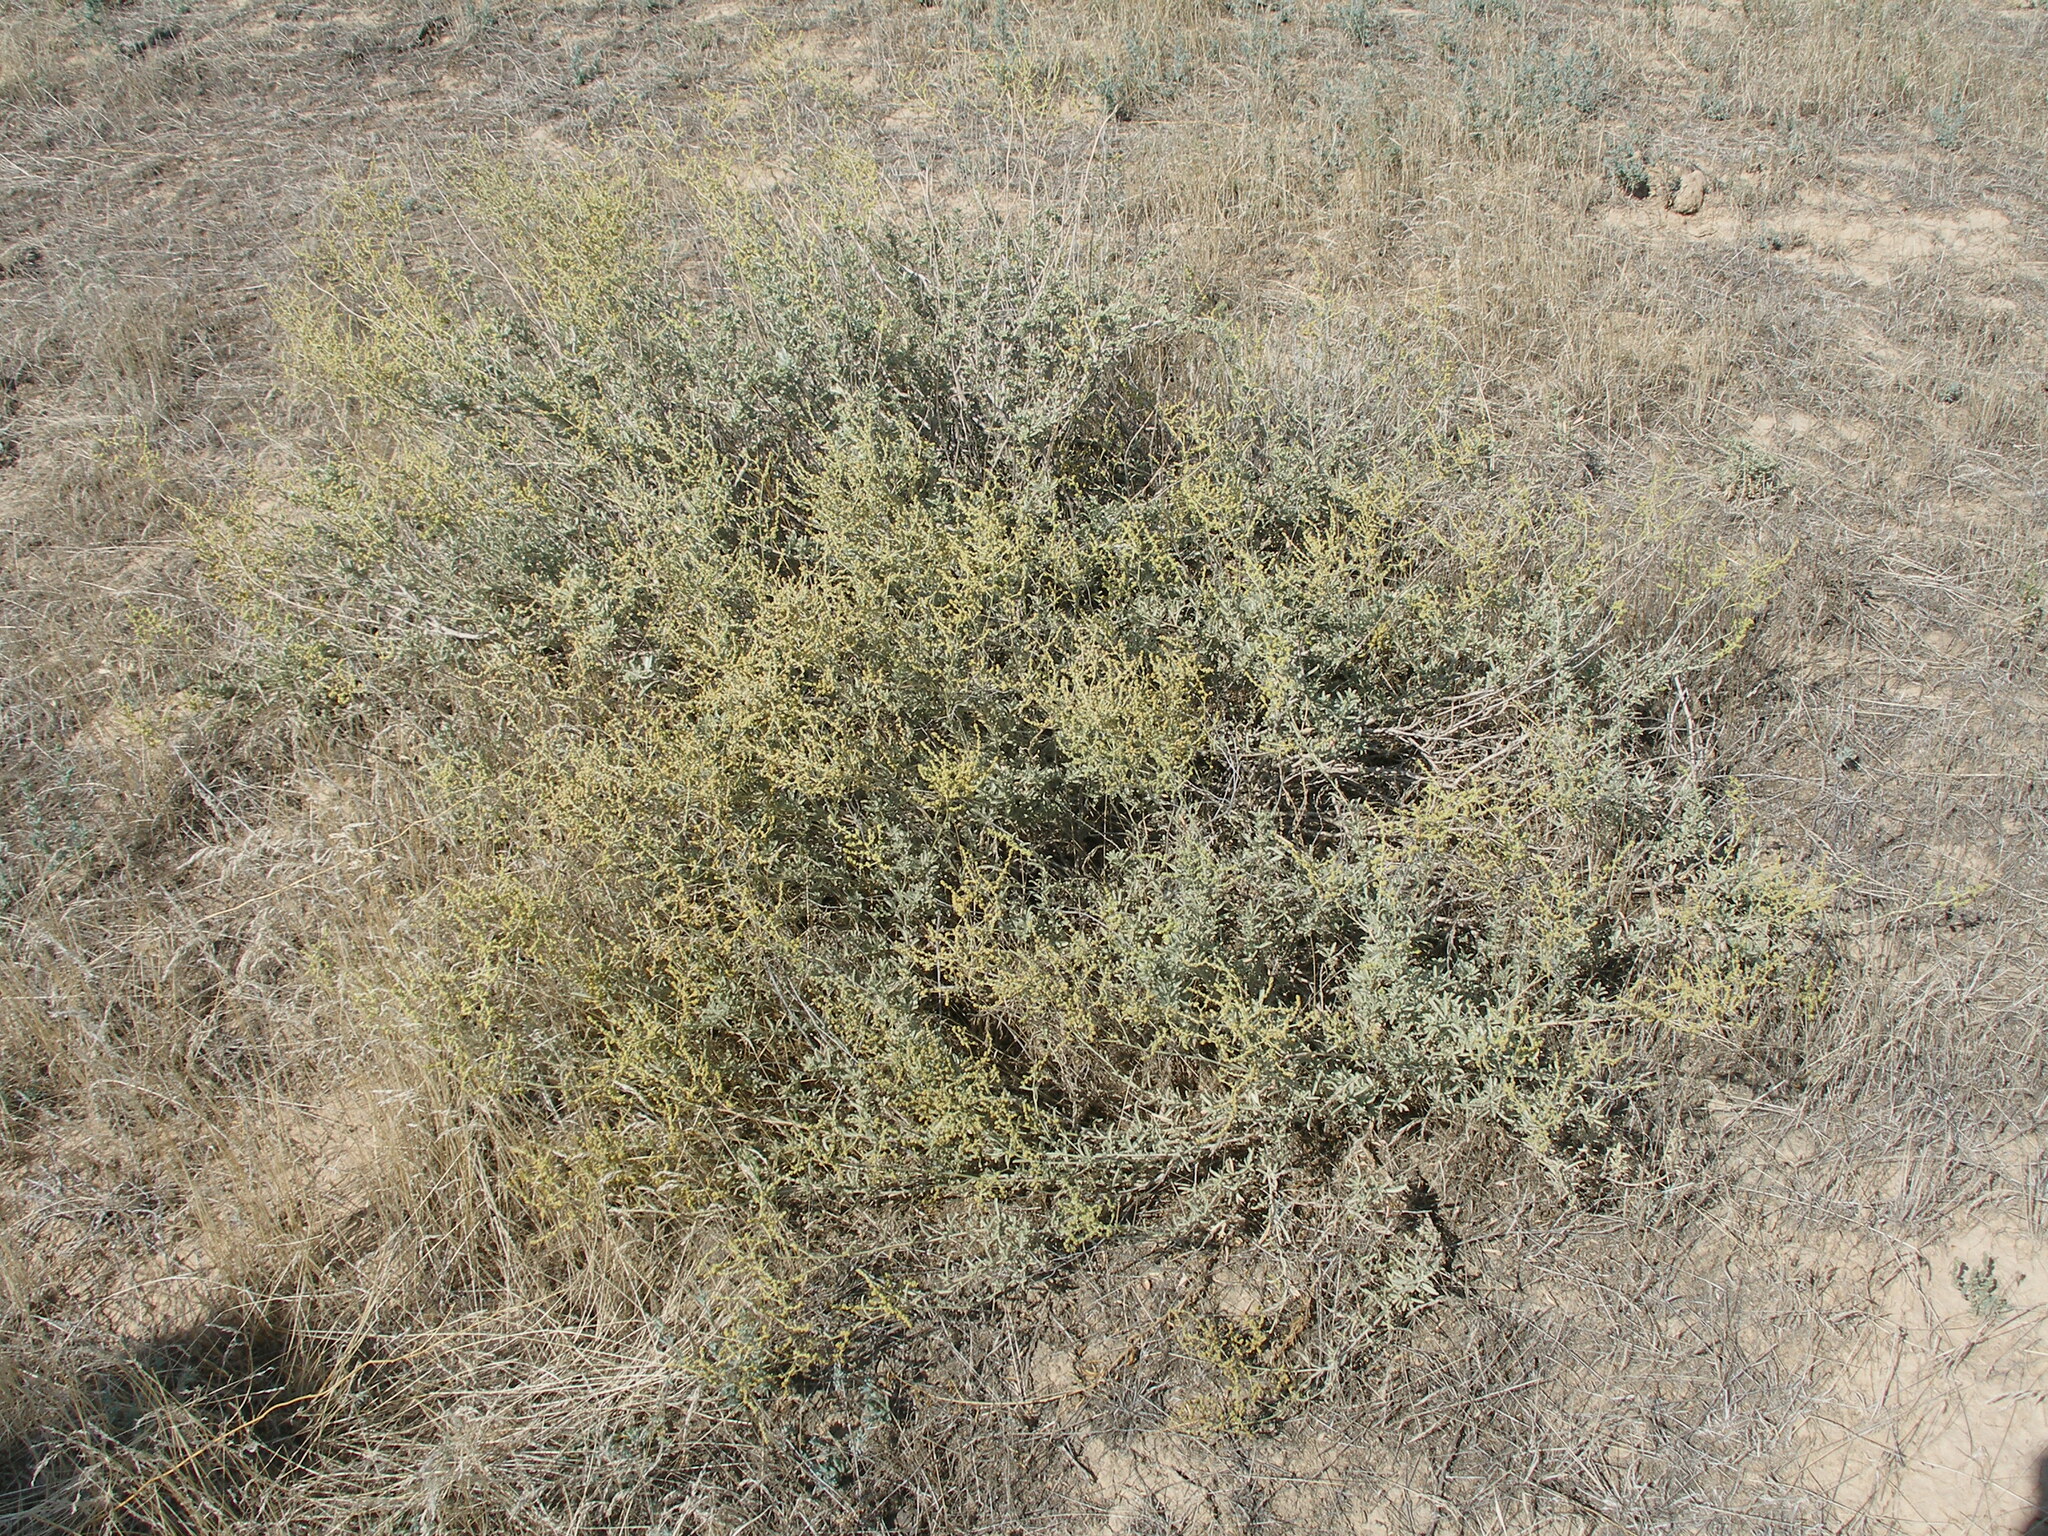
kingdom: Plantae
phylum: Tracheophyta
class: Magnoliopsida
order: Caryophyllales
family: Amaranthaceae
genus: Halimione
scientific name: Halimione verrucifera
